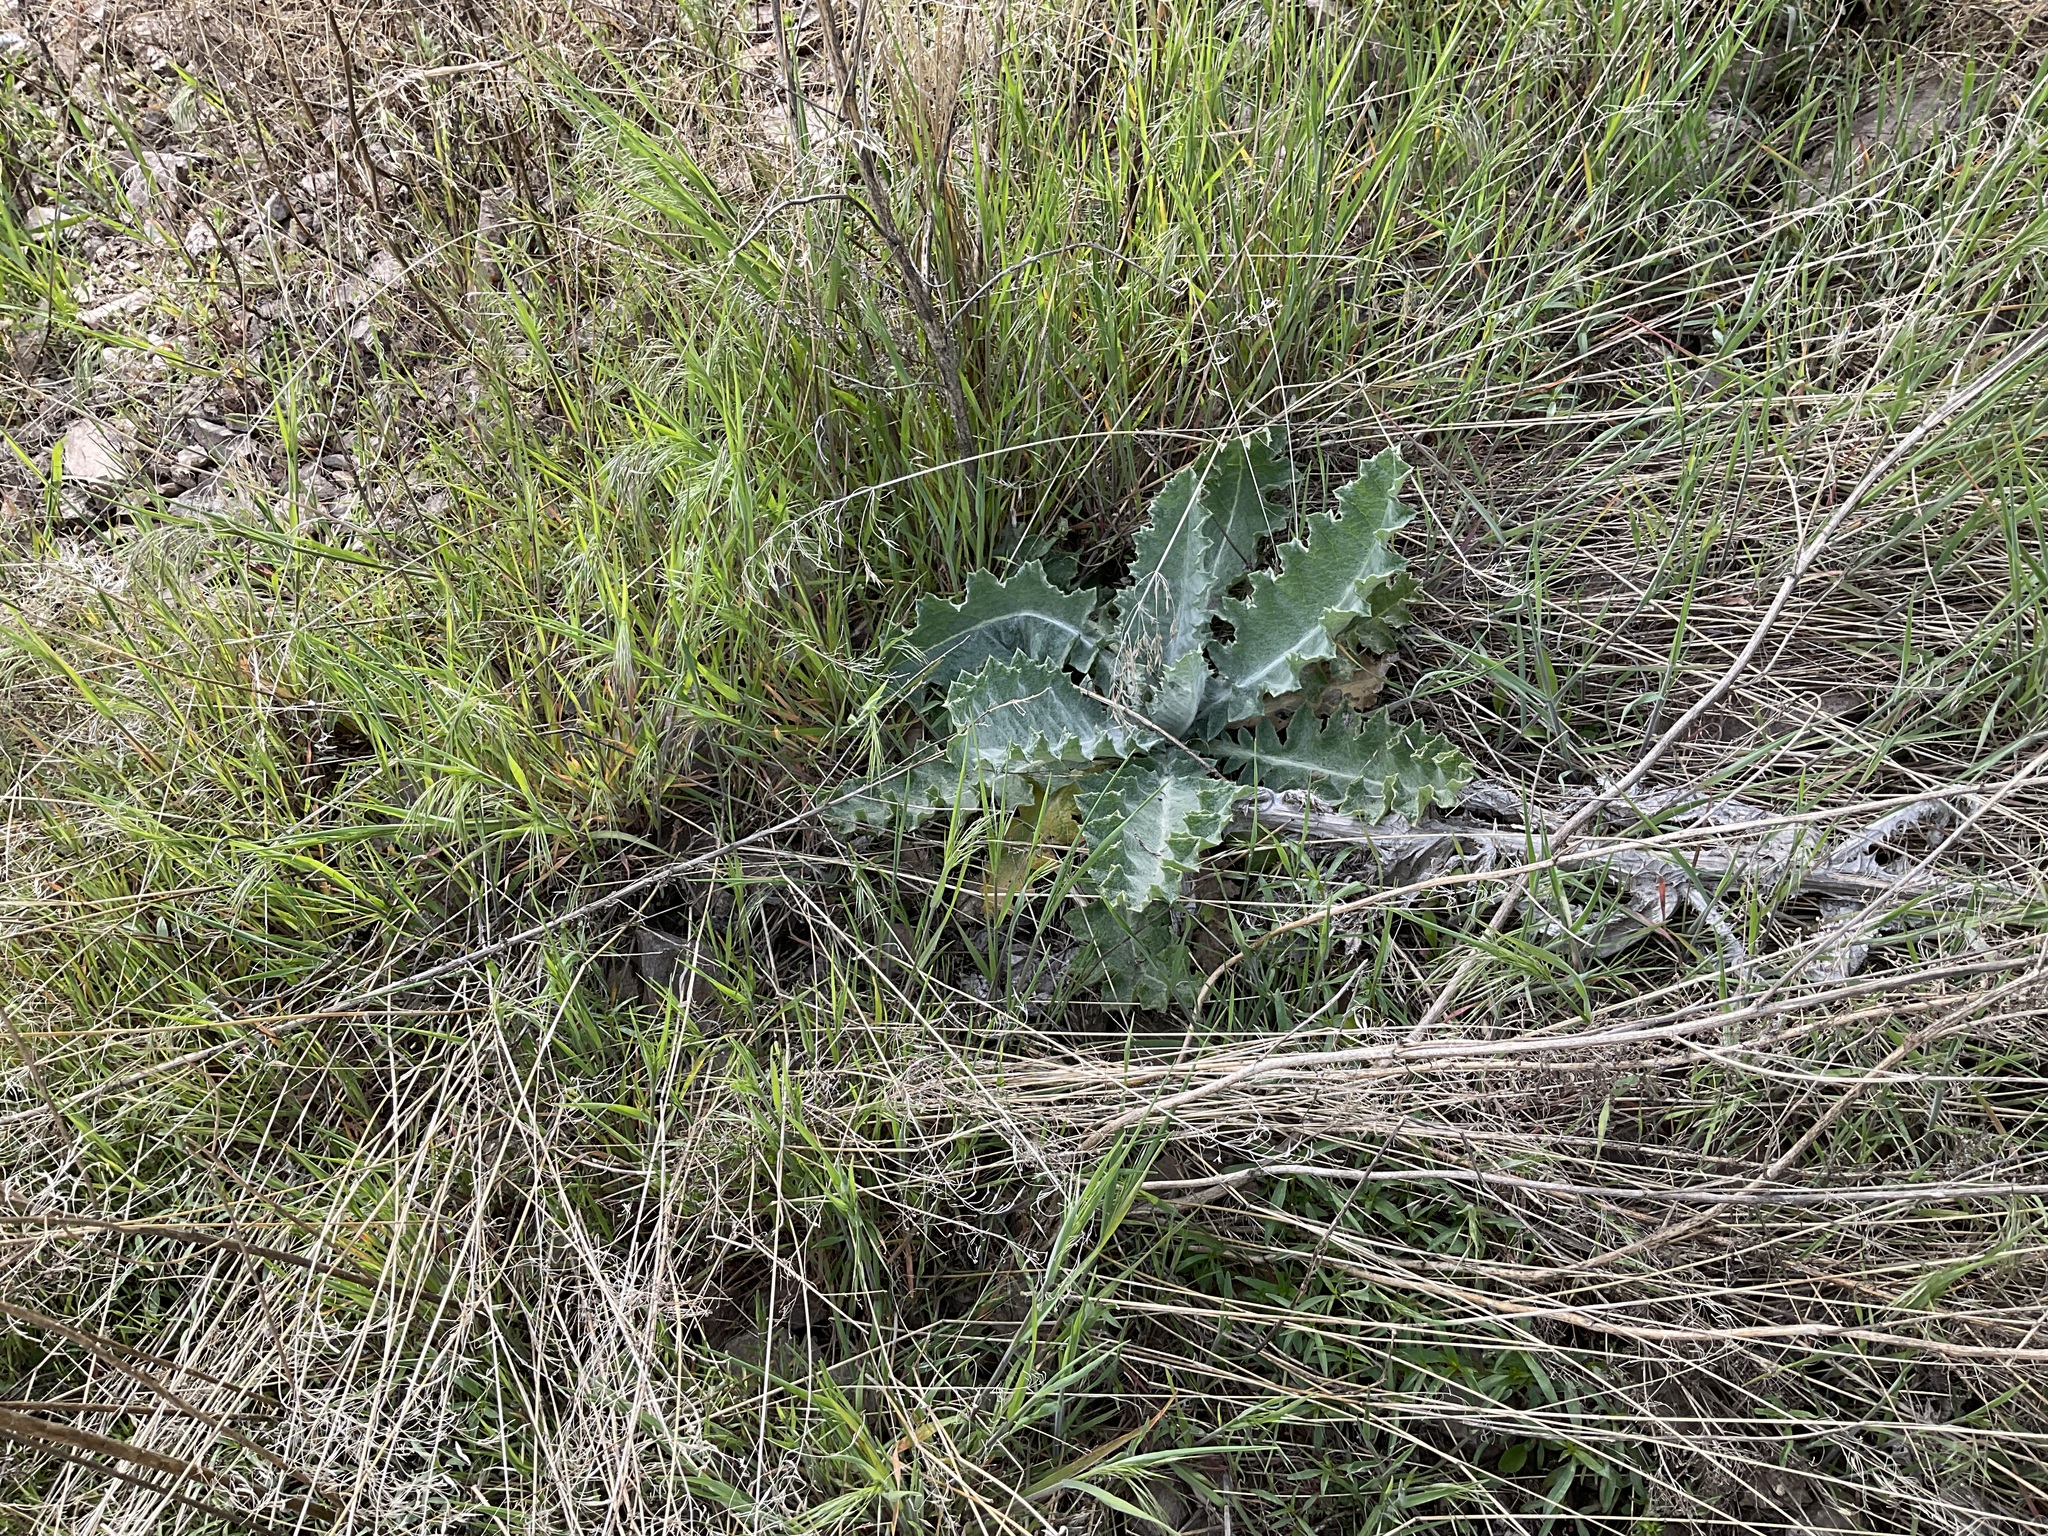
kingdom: Plantae
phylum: Tracheophyta
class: Magnoliopsida
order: Asterales
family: Asteraceae
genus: Onopordum
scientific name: Onopordum acanthium
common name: Scotch thistle
